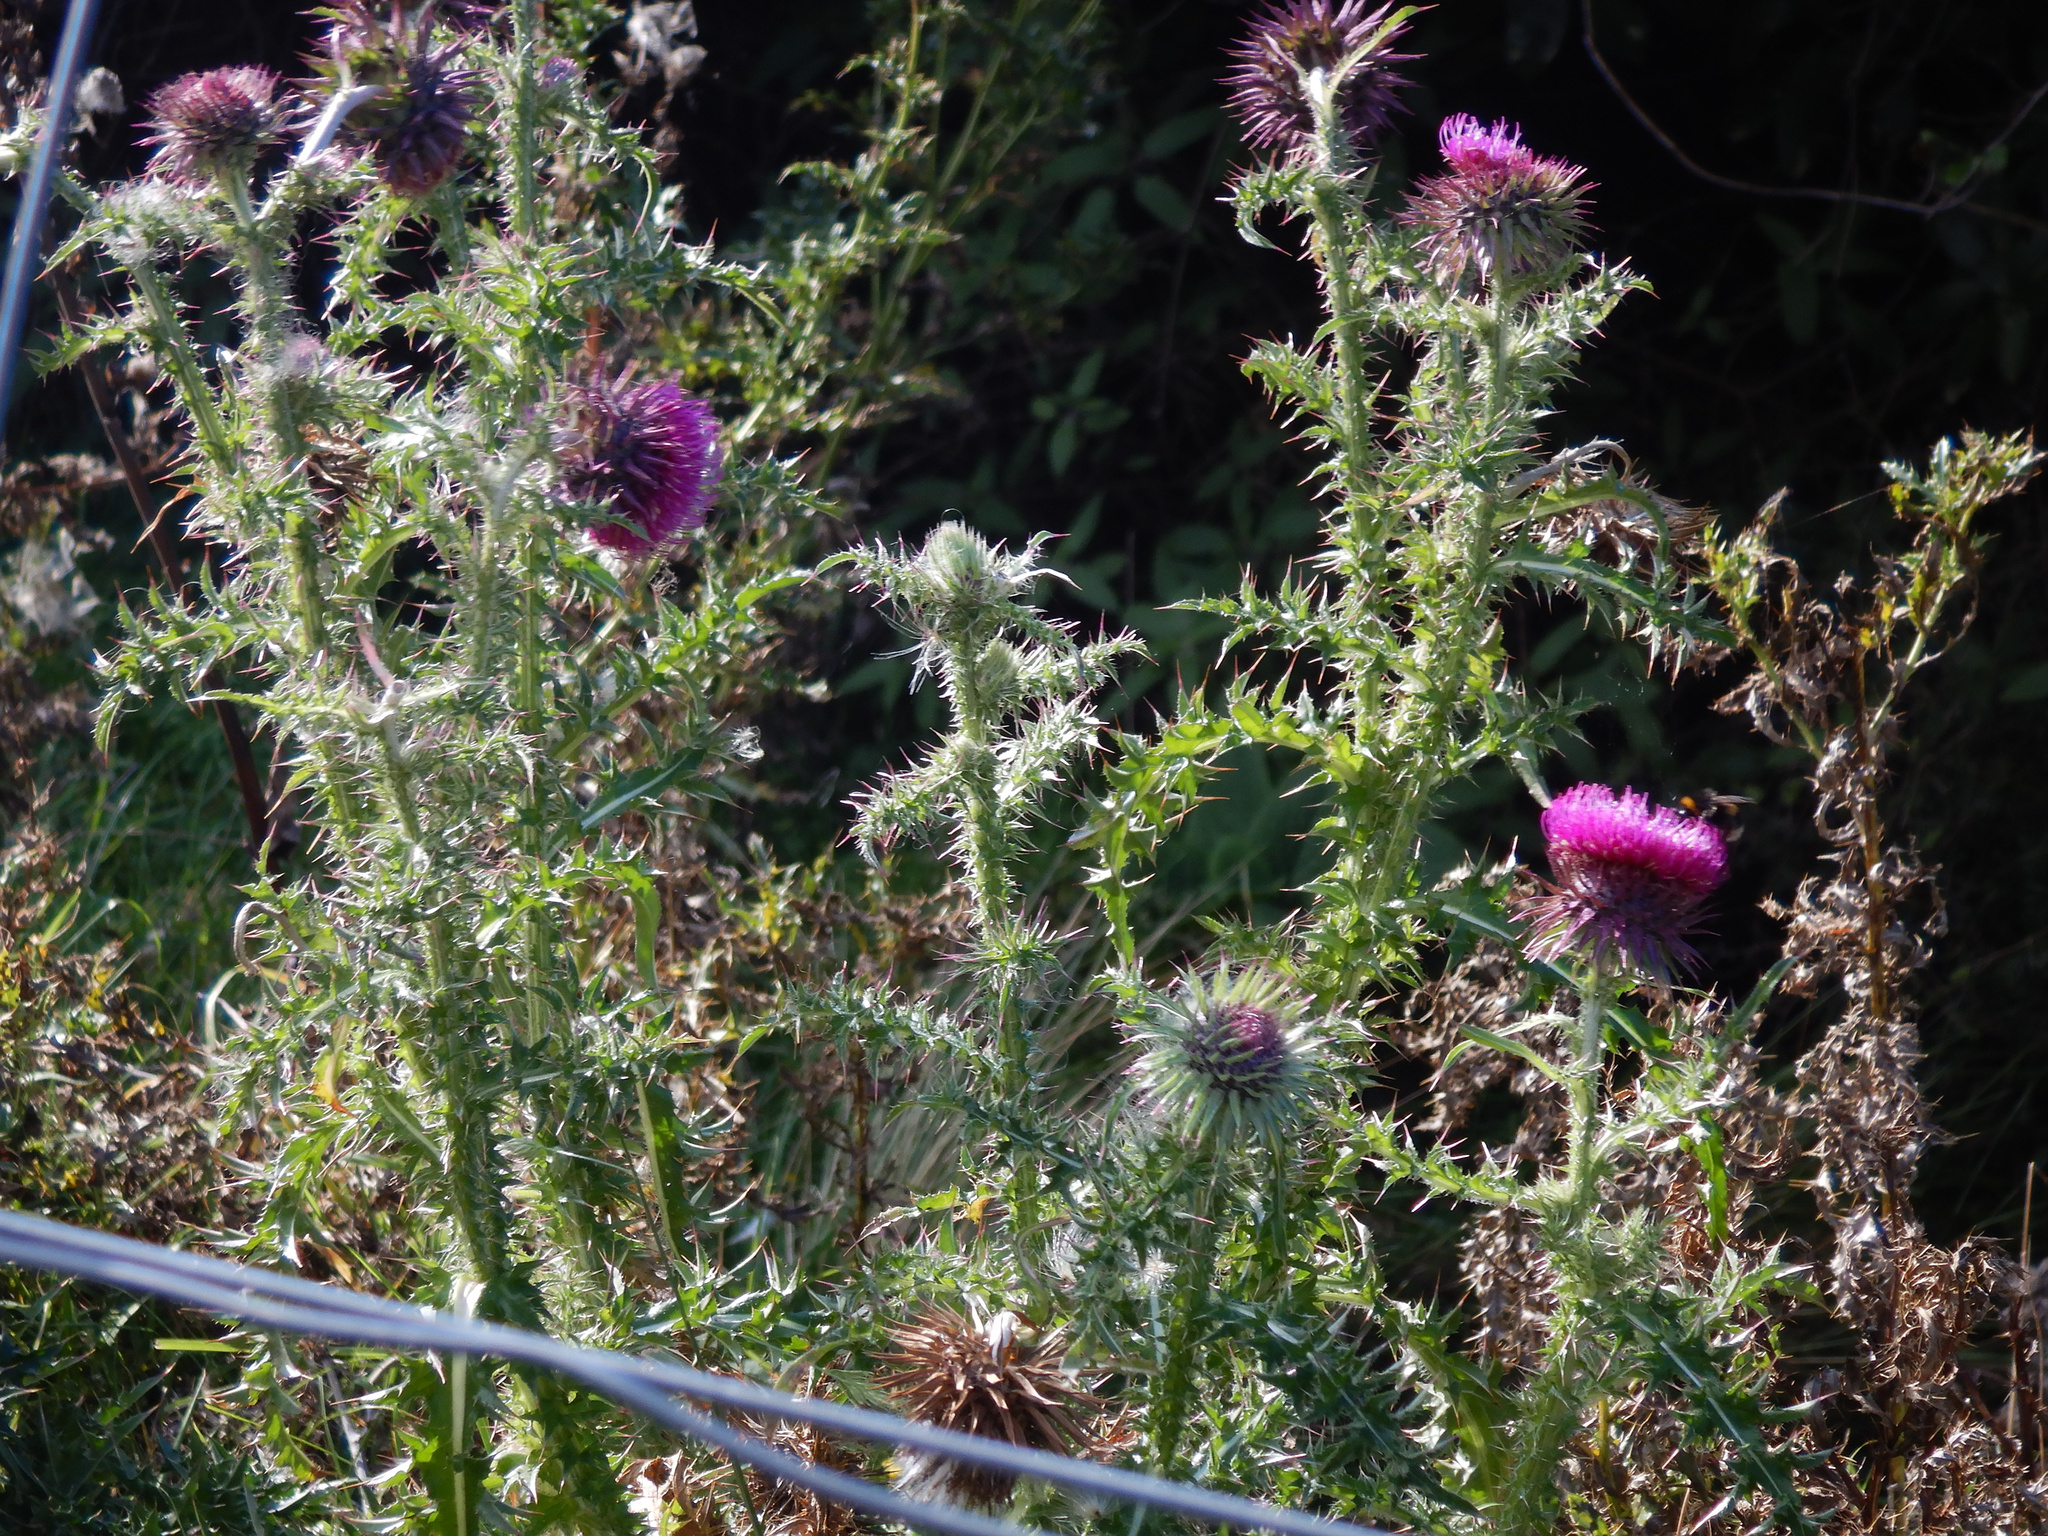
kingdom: Plantae
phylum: Tracheophyta
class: Magnoliopsida
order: Asterales
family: Asteraceae
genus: Carduus
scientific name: Carduus nutans
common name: Musk thistle
